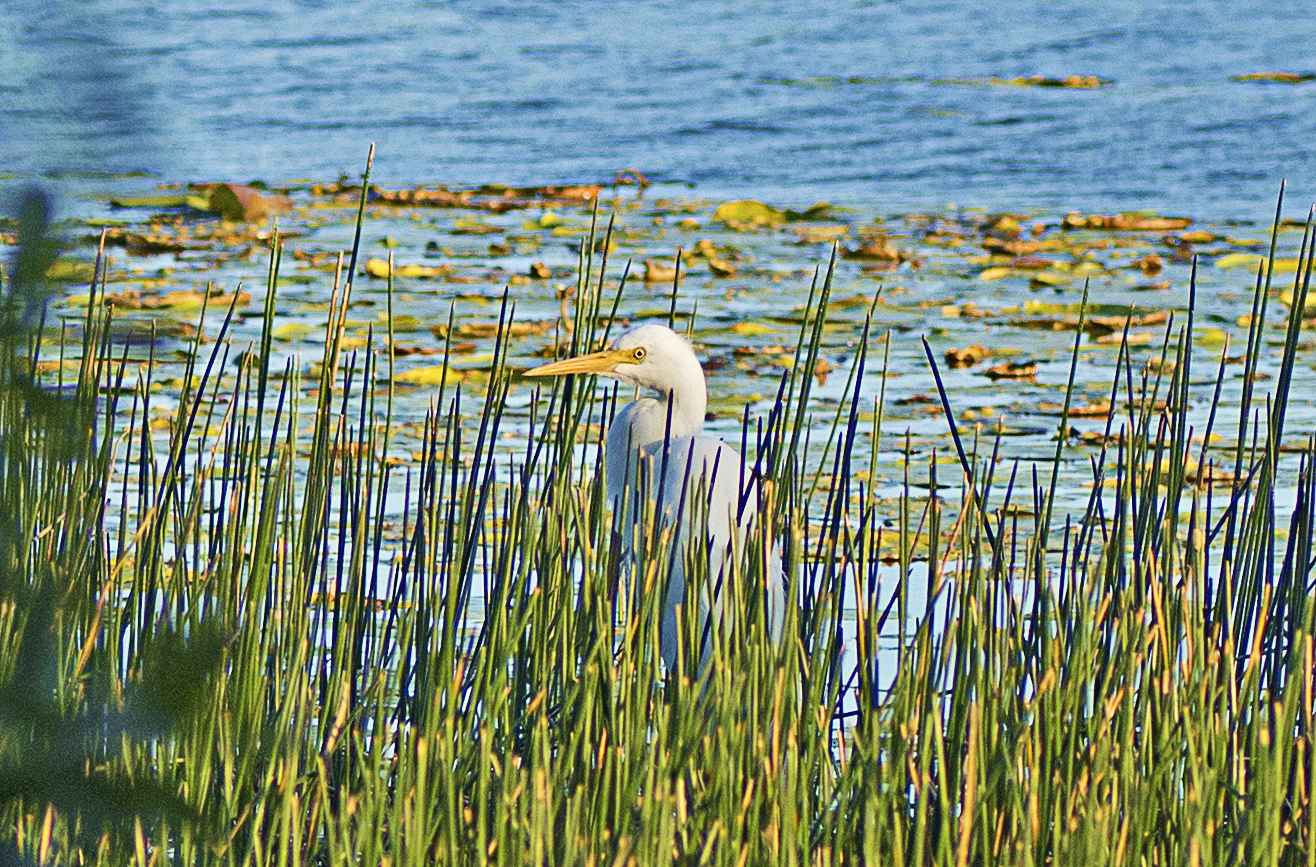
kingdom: Animalia
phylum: Chordata
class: Aves
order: Pelecaniformes
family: Ardeidae
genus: Egretta
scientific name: Egretta intermedia
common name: Intermediate egret
